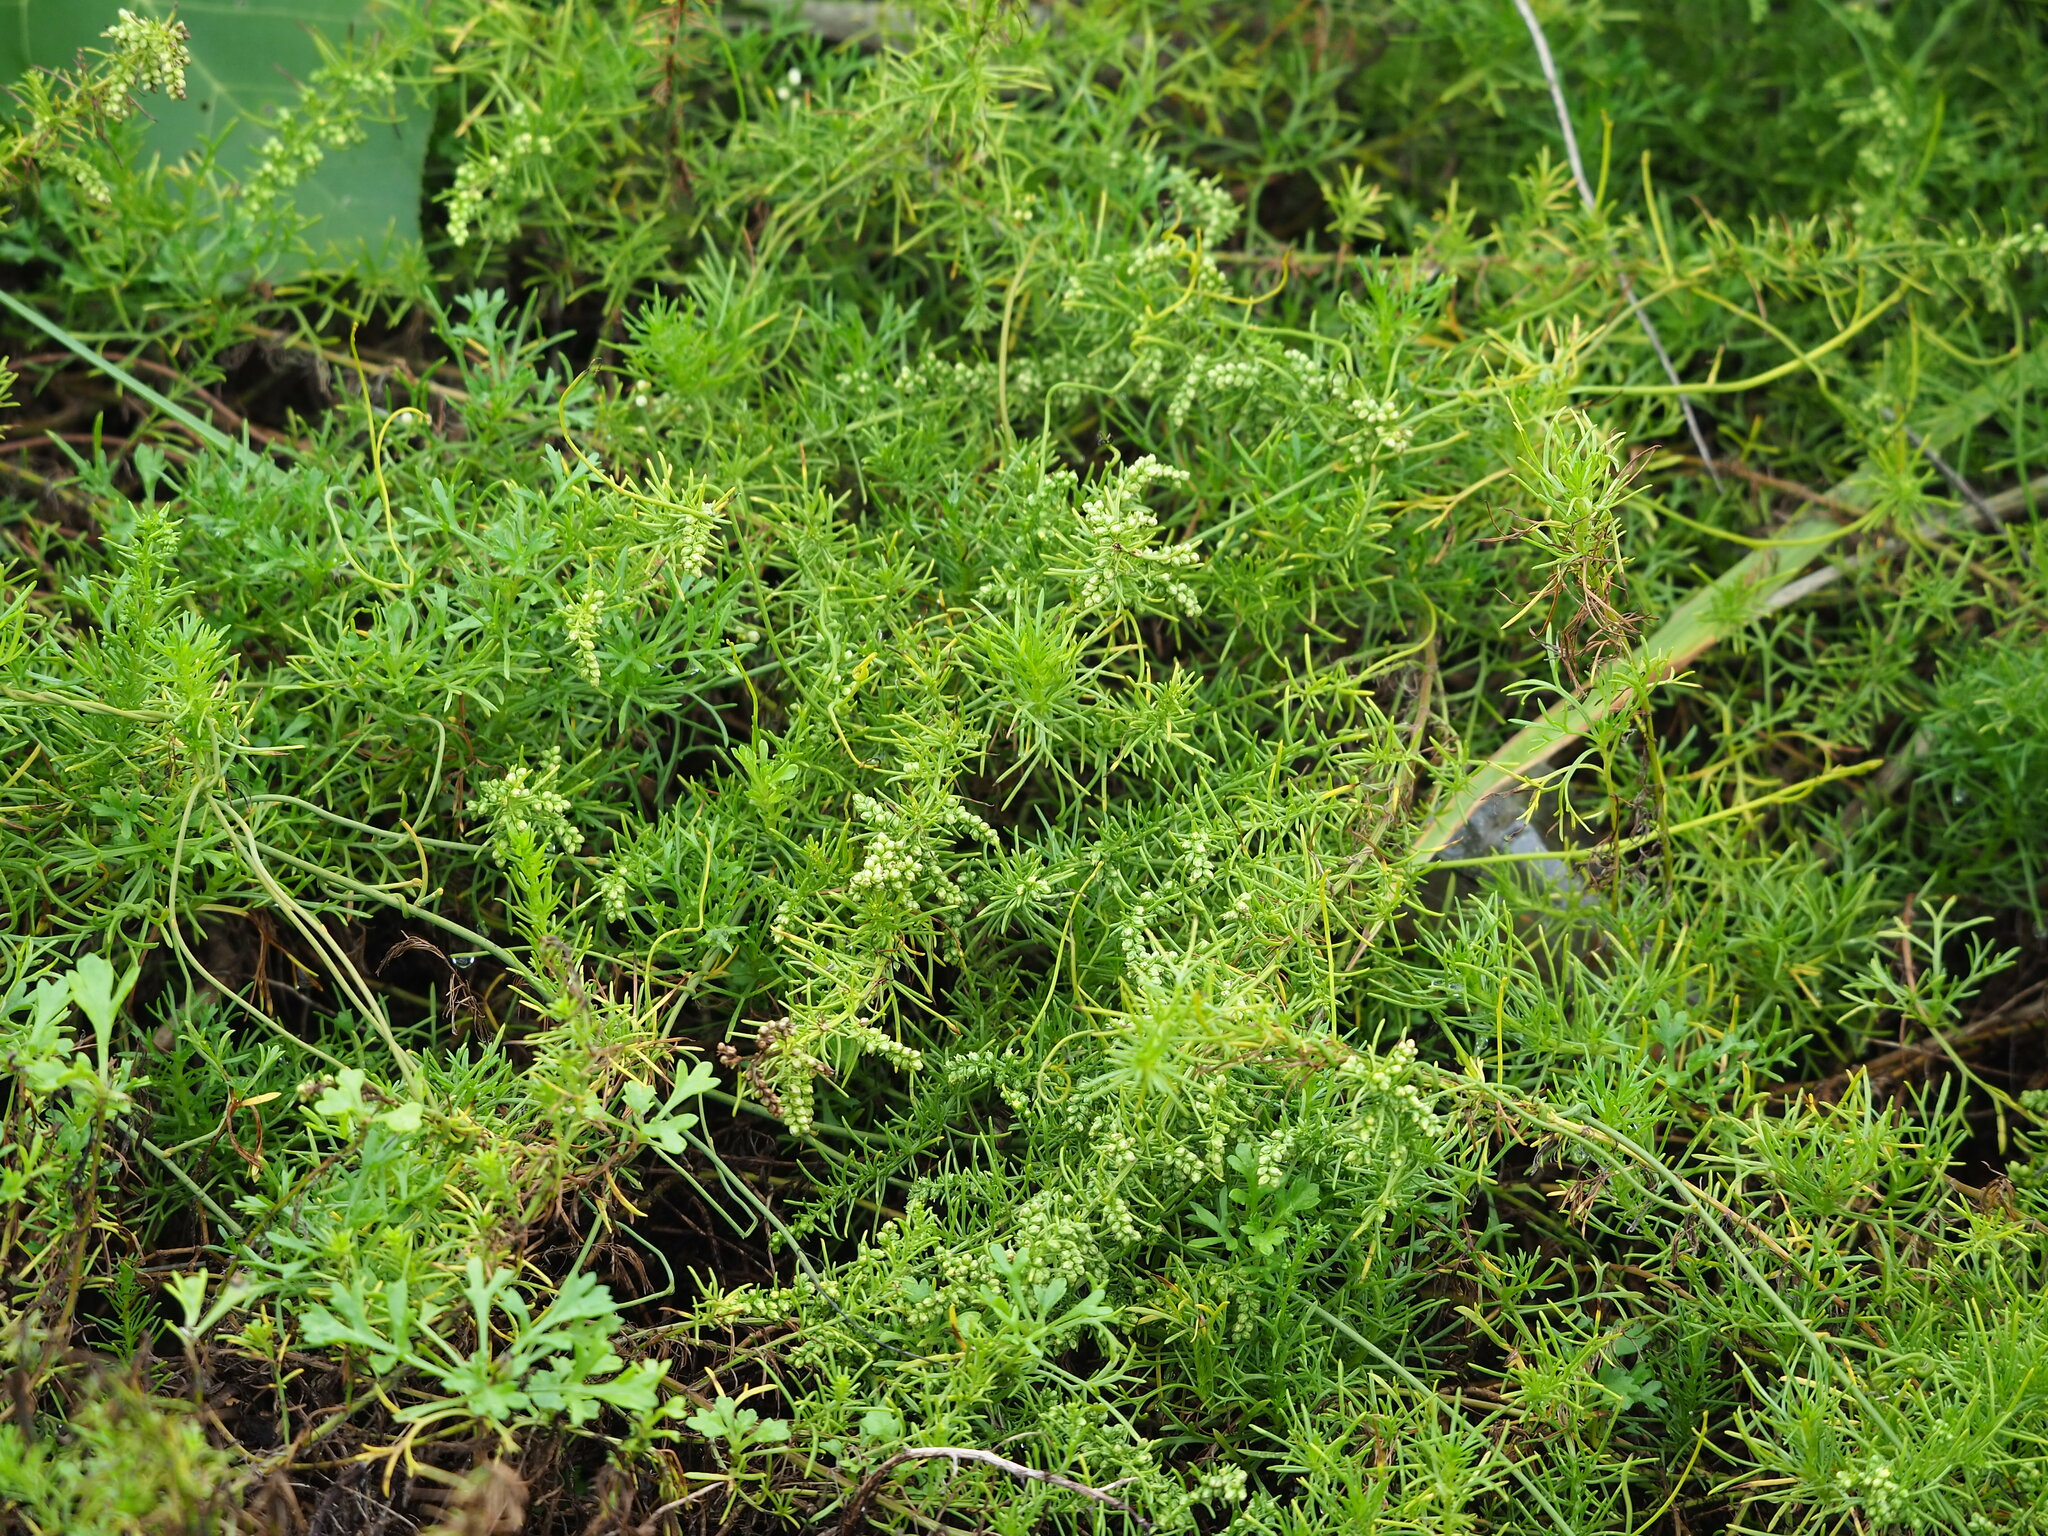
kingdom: Plantae
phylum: Tracheophyta
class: Magnoliopsida
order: Asterales
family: Asteraceae
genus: Artemisia
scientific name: Artemisia capillaris
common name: Yin-chen wormwood
